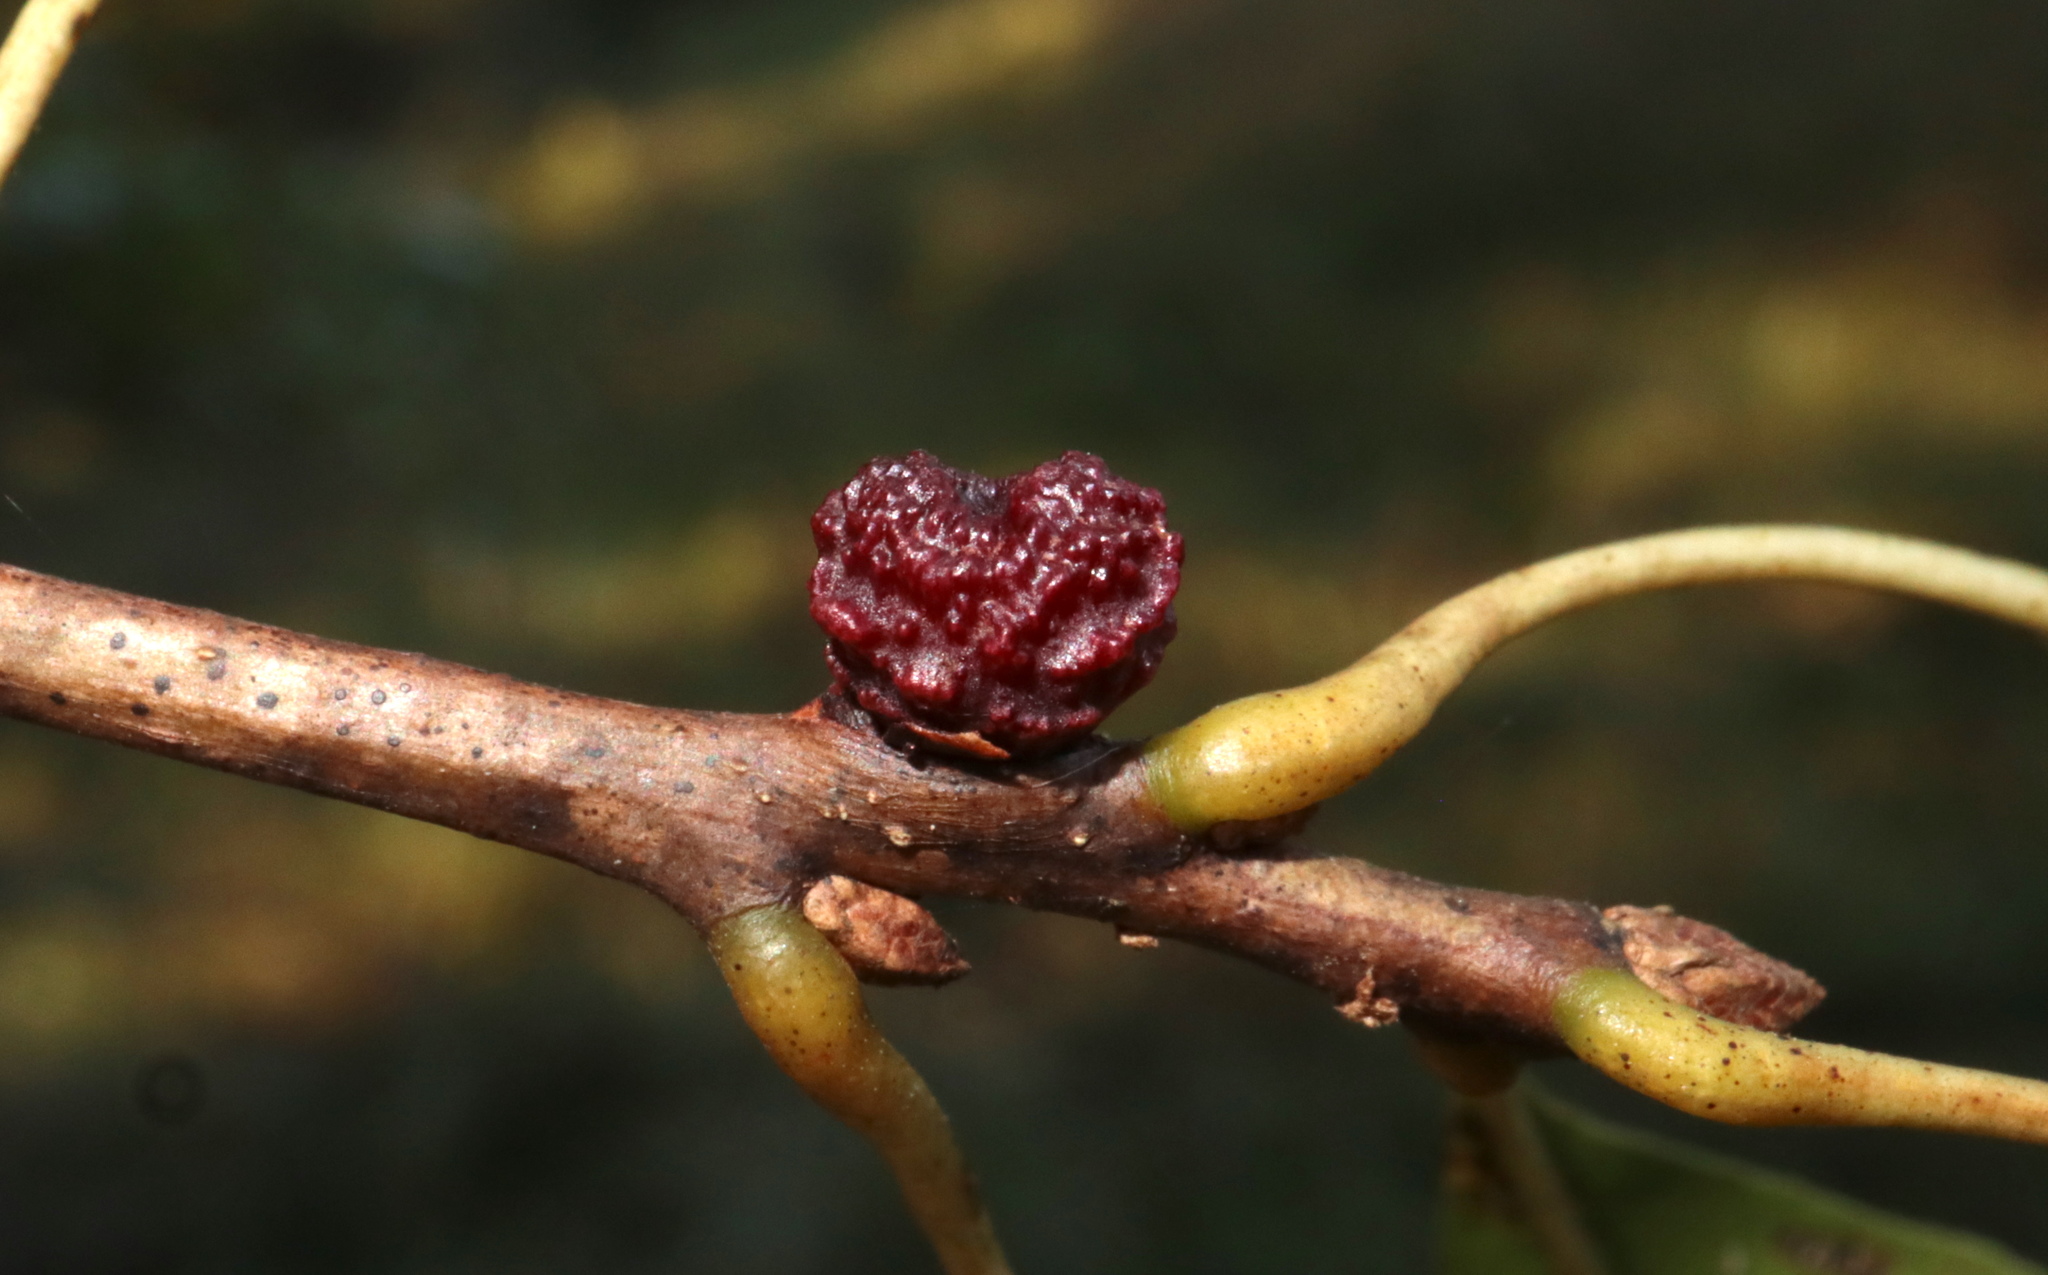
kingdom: Animalia
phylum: Arthropoda
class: Insecta
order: Hymenoptera
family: Cynipidae
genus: Kokkocynips
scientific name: Kokkocynips difficilis
